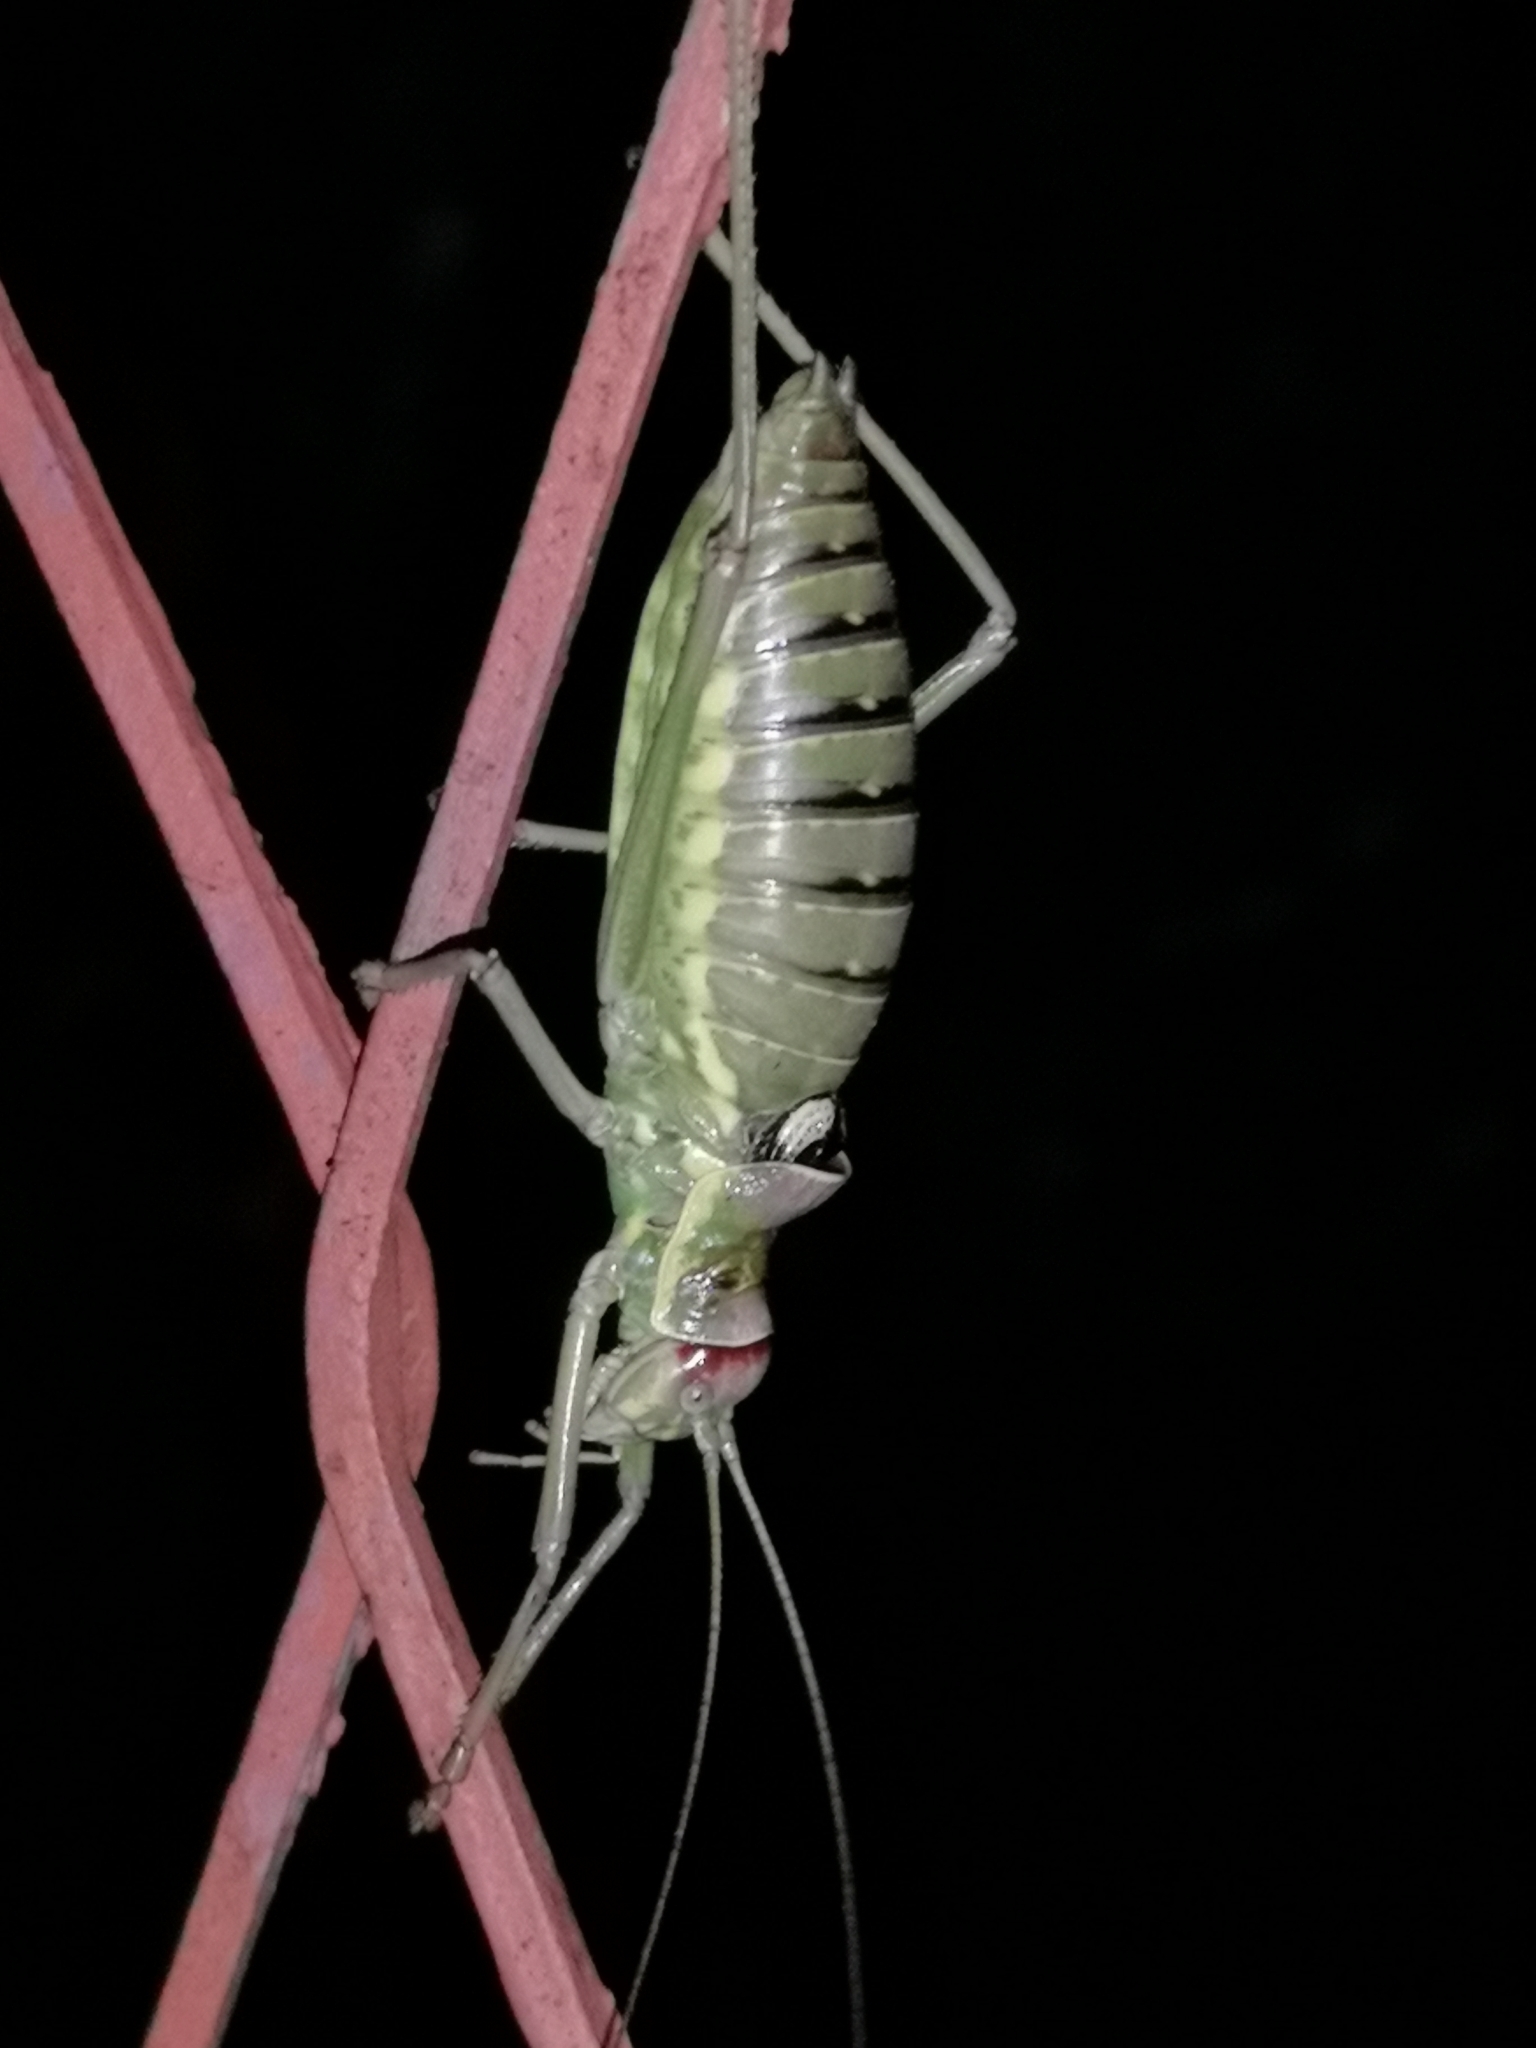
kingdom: Animalia
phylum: Arthropoda
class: Insecta
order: Orthoptera
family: Tettigoniidae
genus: Dinarippiger
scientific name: Dinarippiger discoidalis
